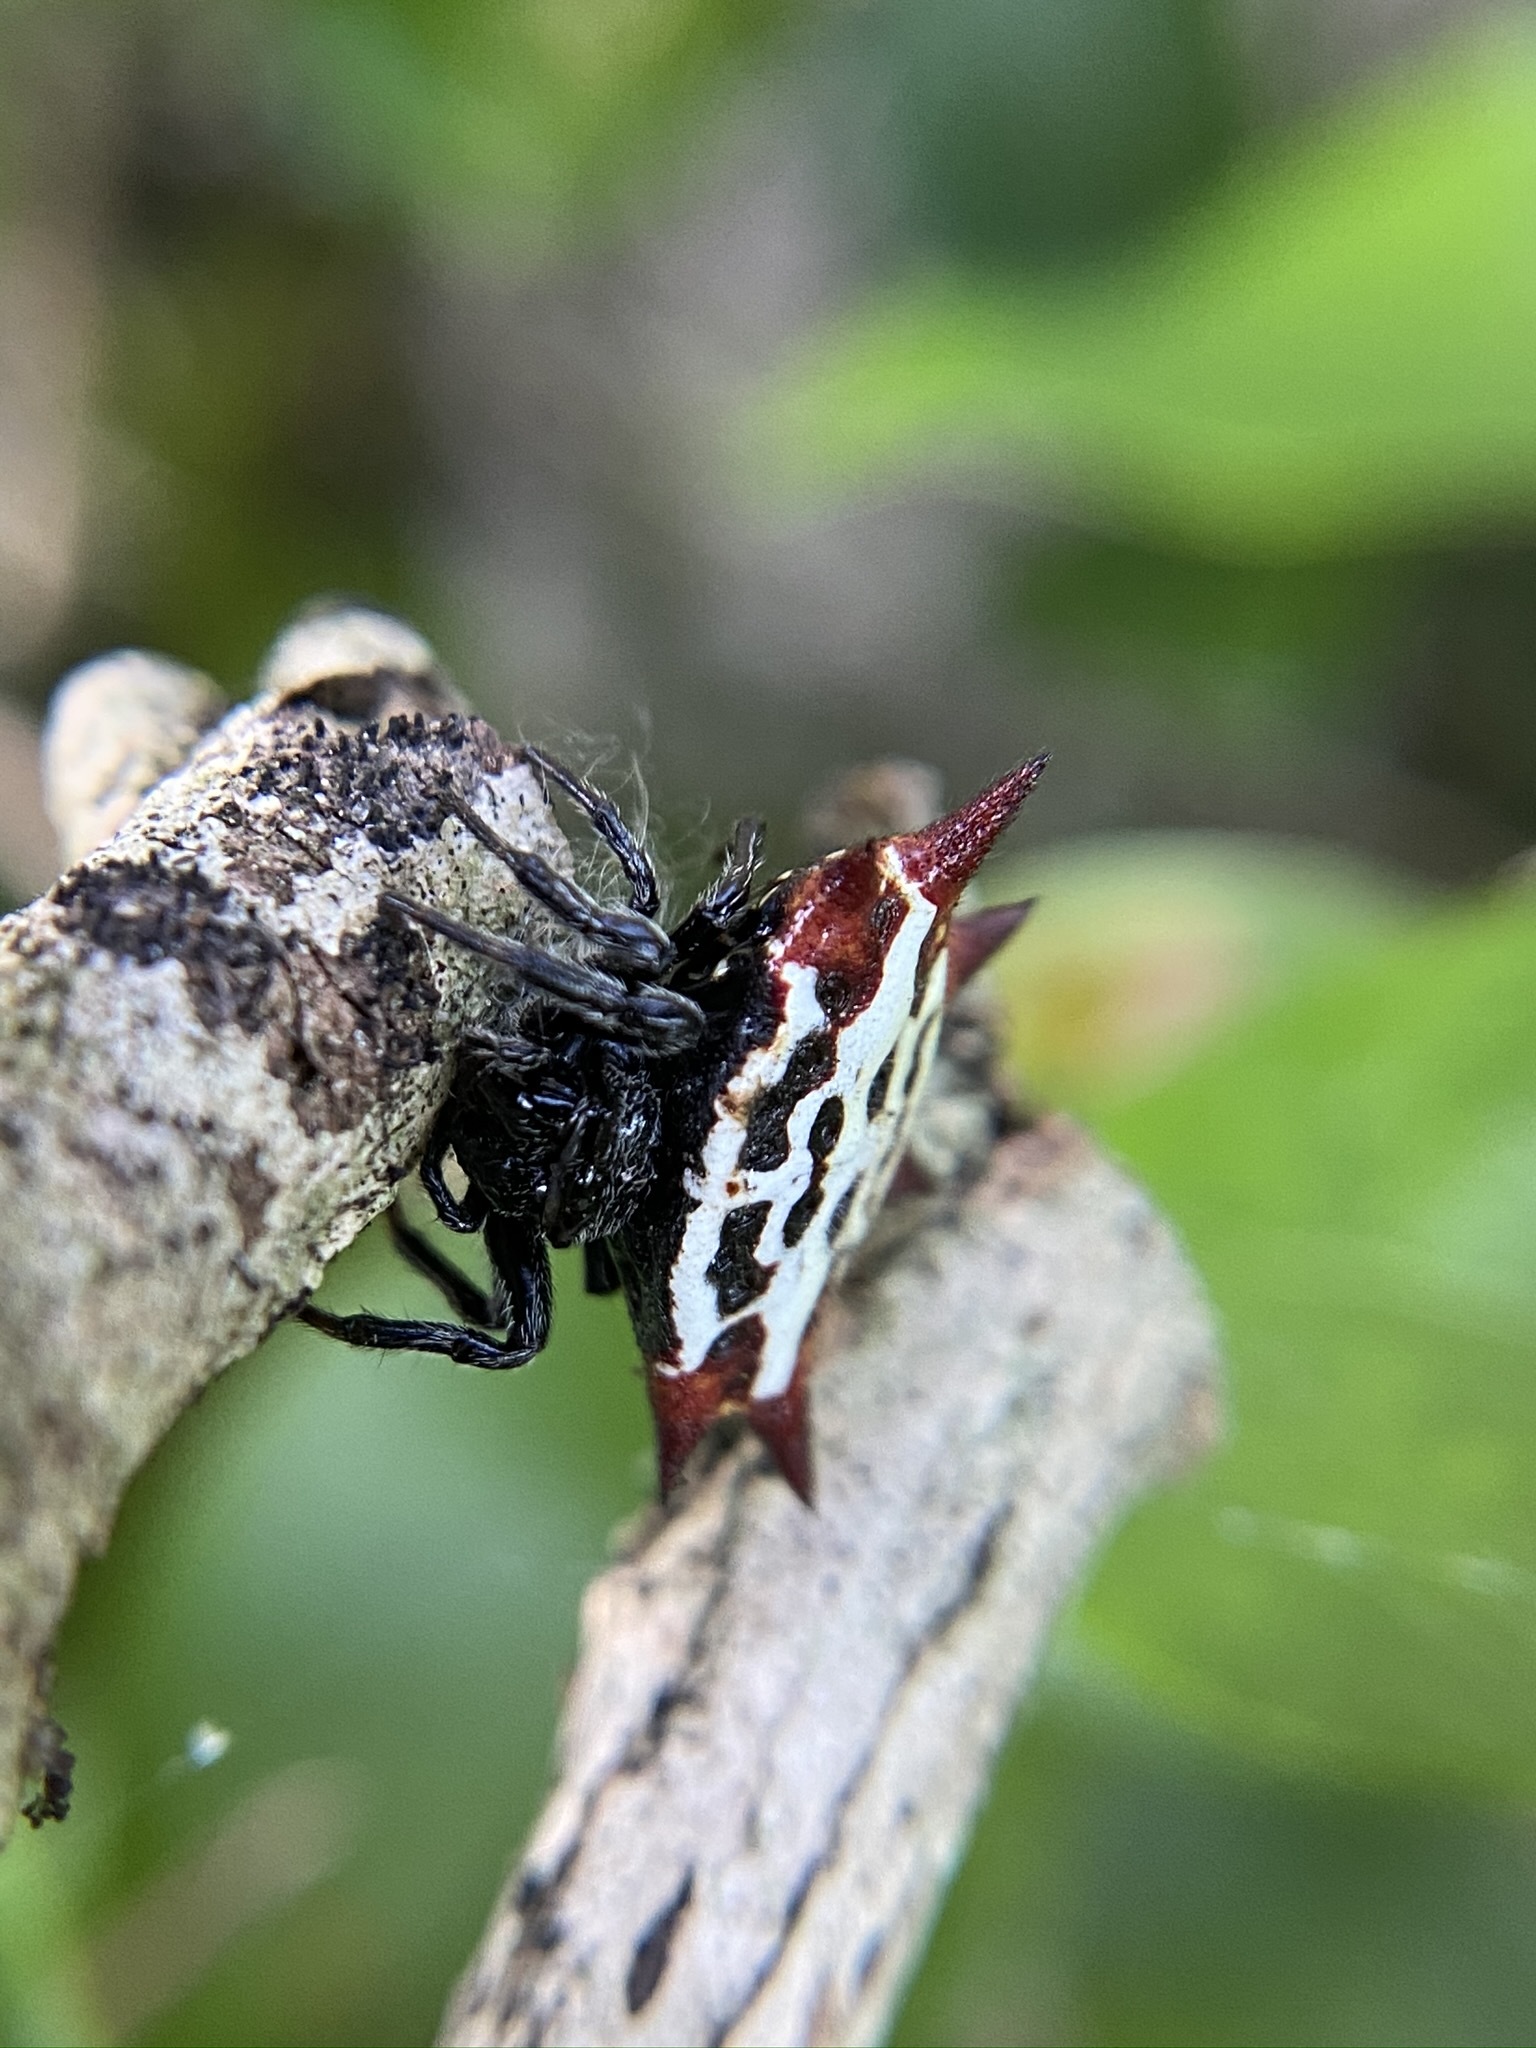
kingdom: Animalia
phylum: Arthropoda
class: Arachnida
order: Araneae
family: Araneidae
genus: Gasteracantha
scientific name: Gasteracantha cancriformis
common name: Orb weavers
